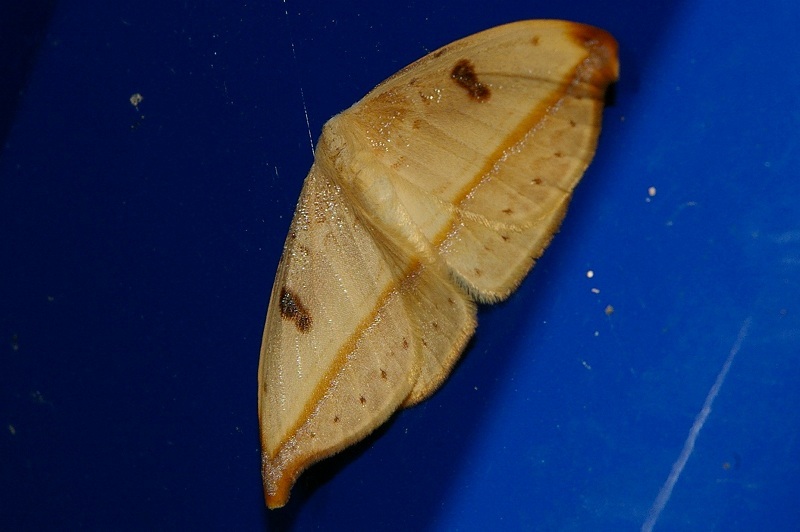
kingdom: Animalia
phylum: Arthropoda
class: Insecta
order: Lepidoptera
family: Drepanidae
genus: Callidrepana
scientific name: Callidrepana patrana
